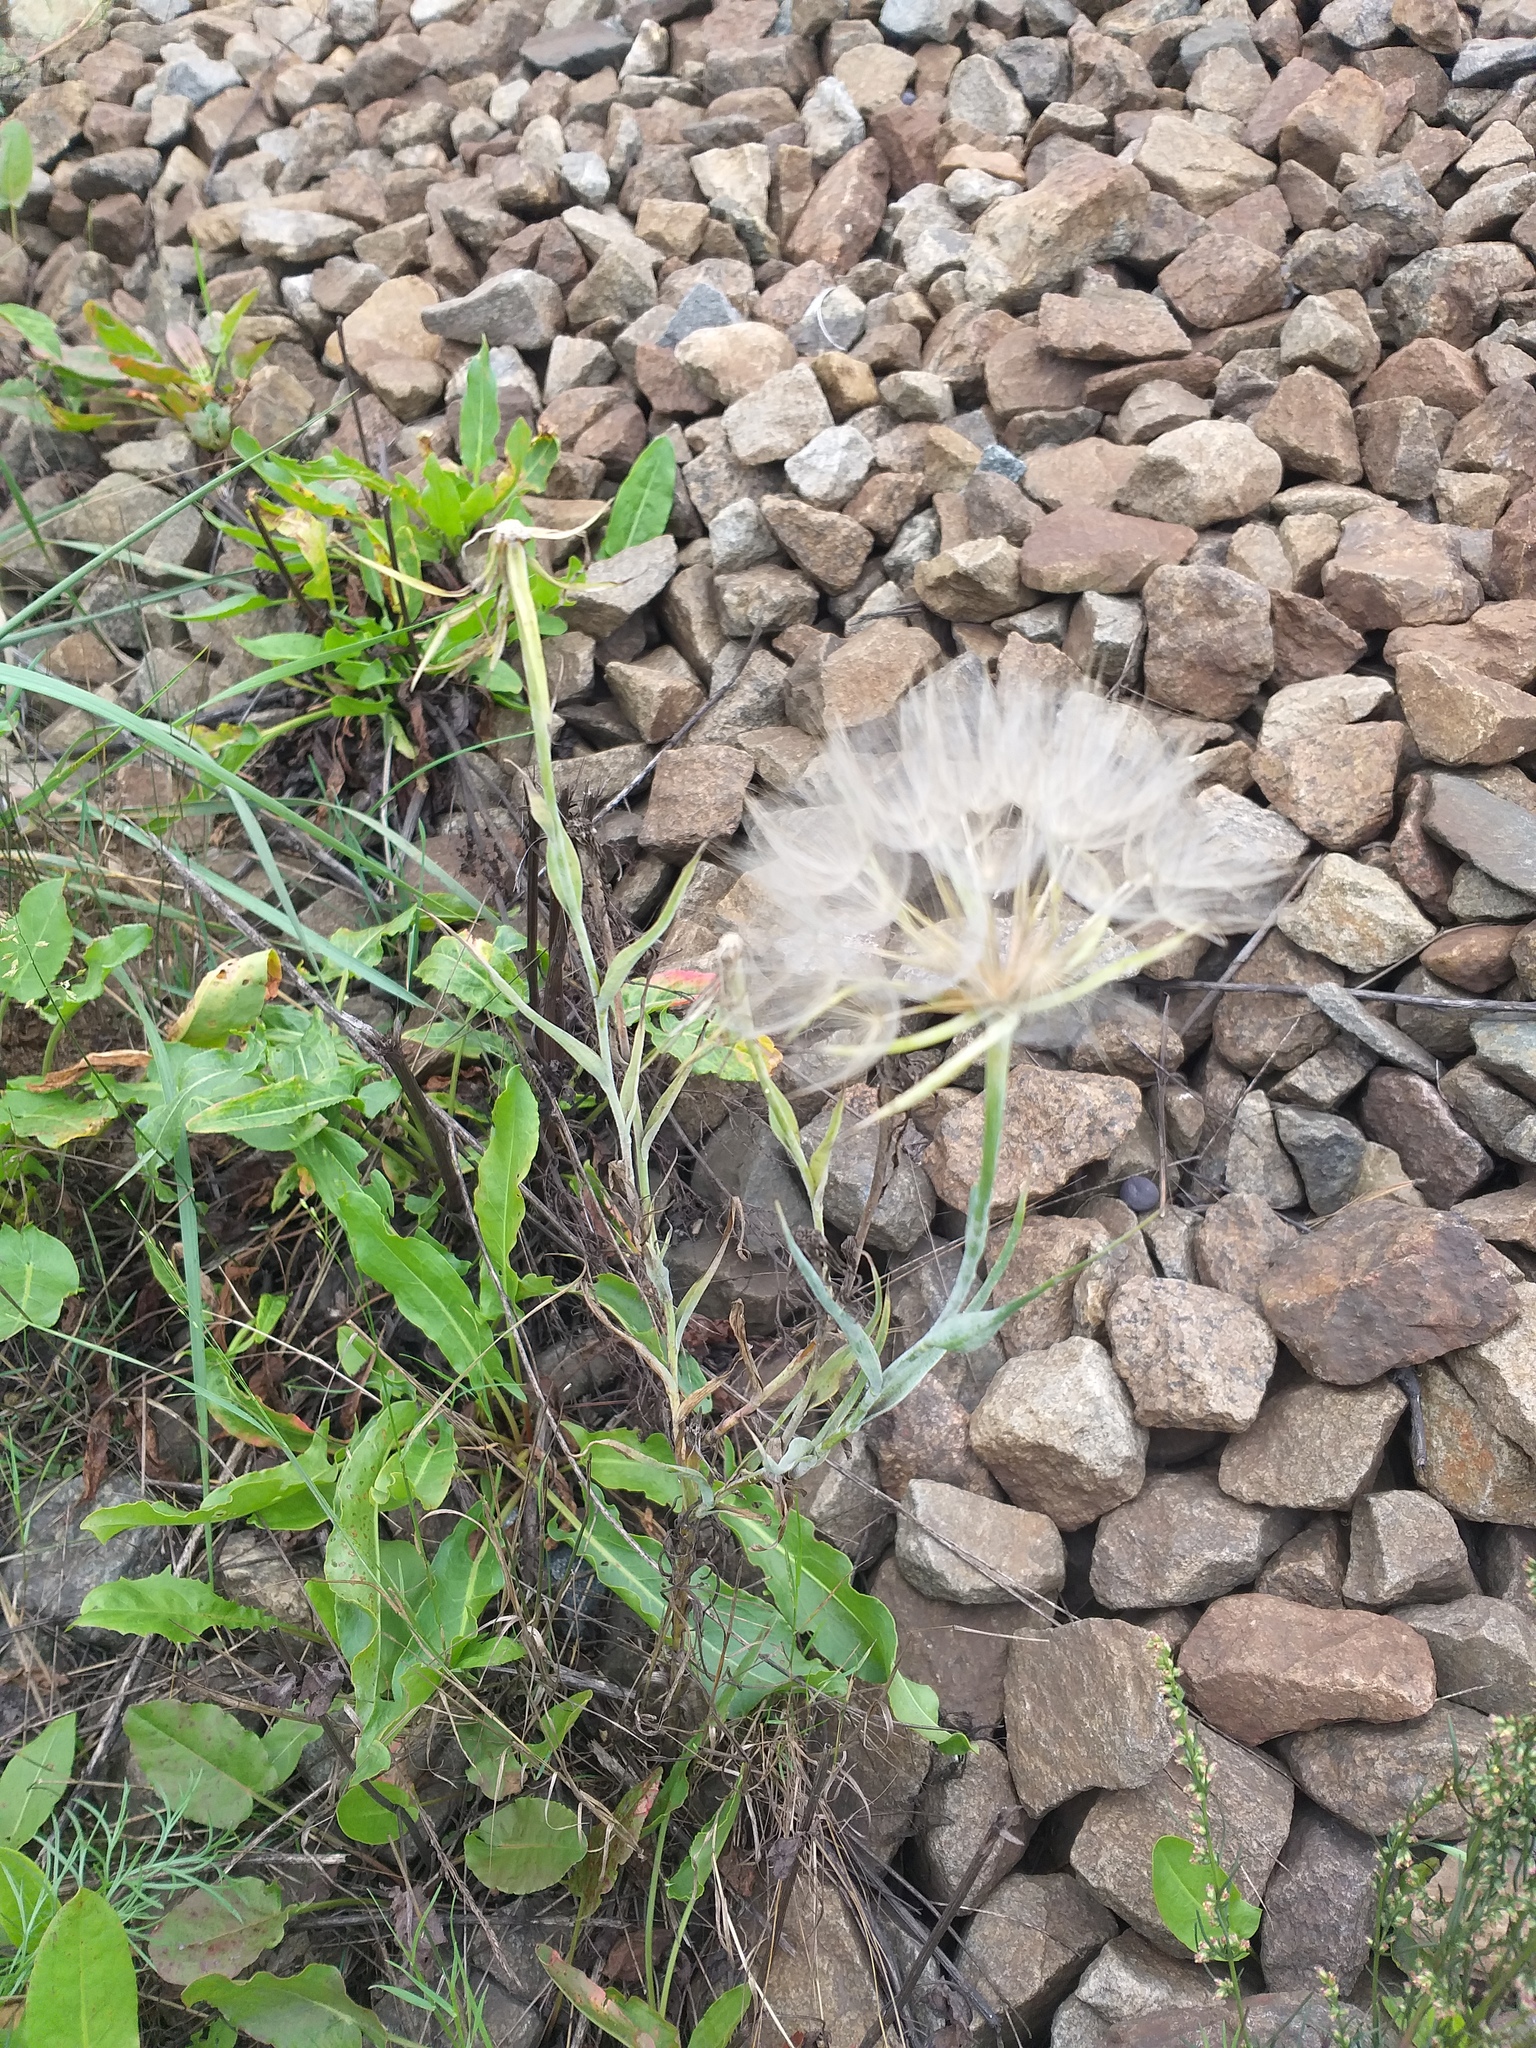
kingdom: Plantae
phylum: Tracheophyta
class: Magnoliopsida
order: Asterales
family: Asteraceae
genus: Tragopogon
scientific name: Tragopogon dubius
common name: Yellow salsify
